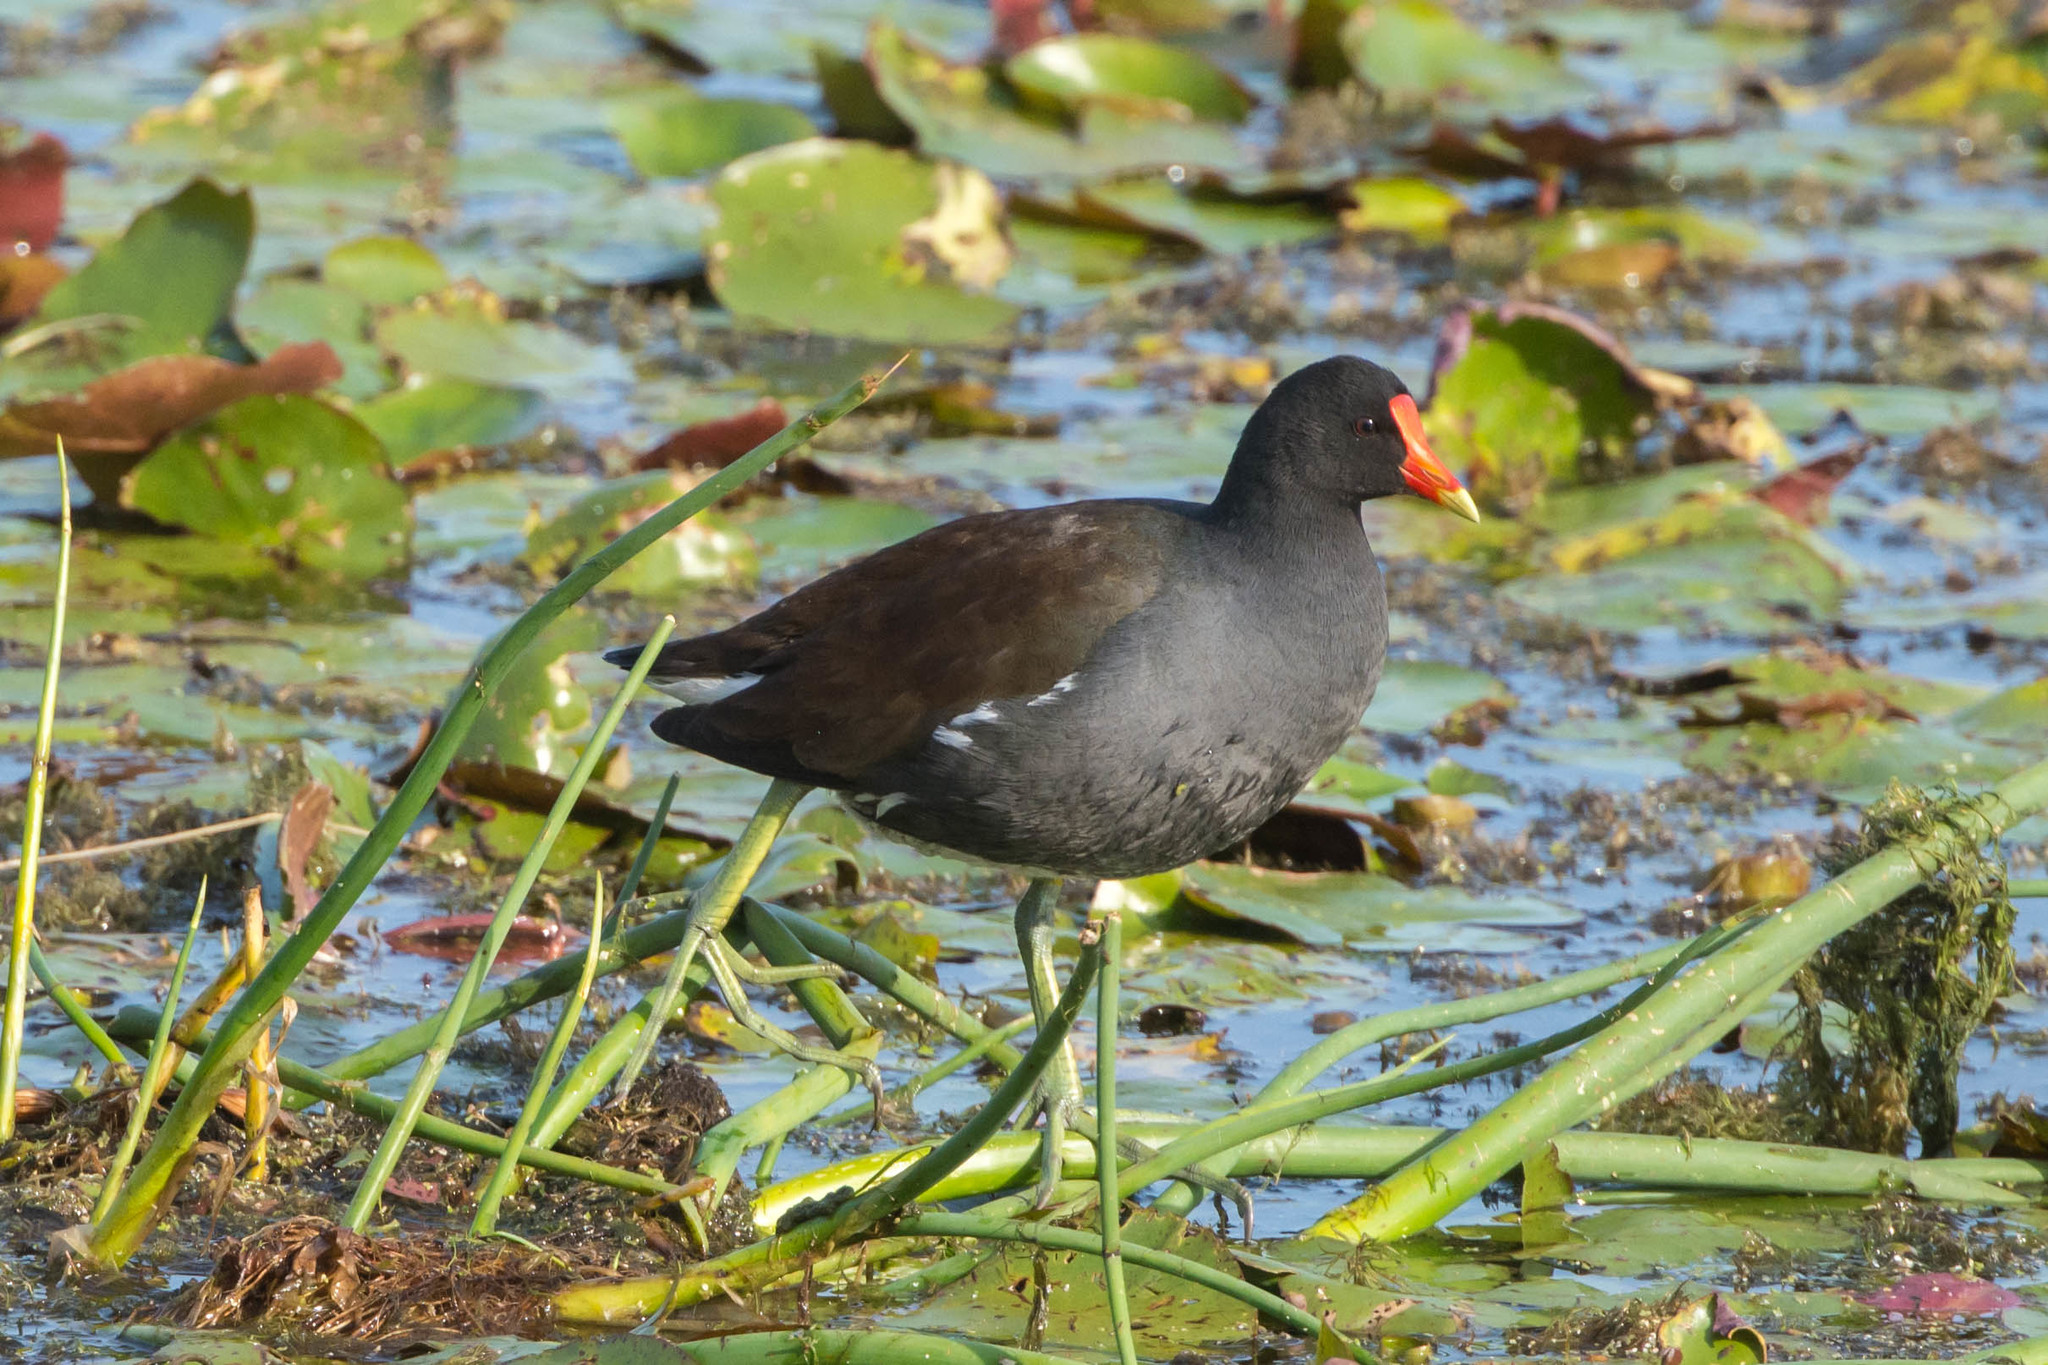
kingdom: Animalia
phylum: Chordata
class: Aves
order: Gruiformes
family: Rallidae
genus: Gallinula
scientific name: Gallinula chloropus
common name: Common moorhen
